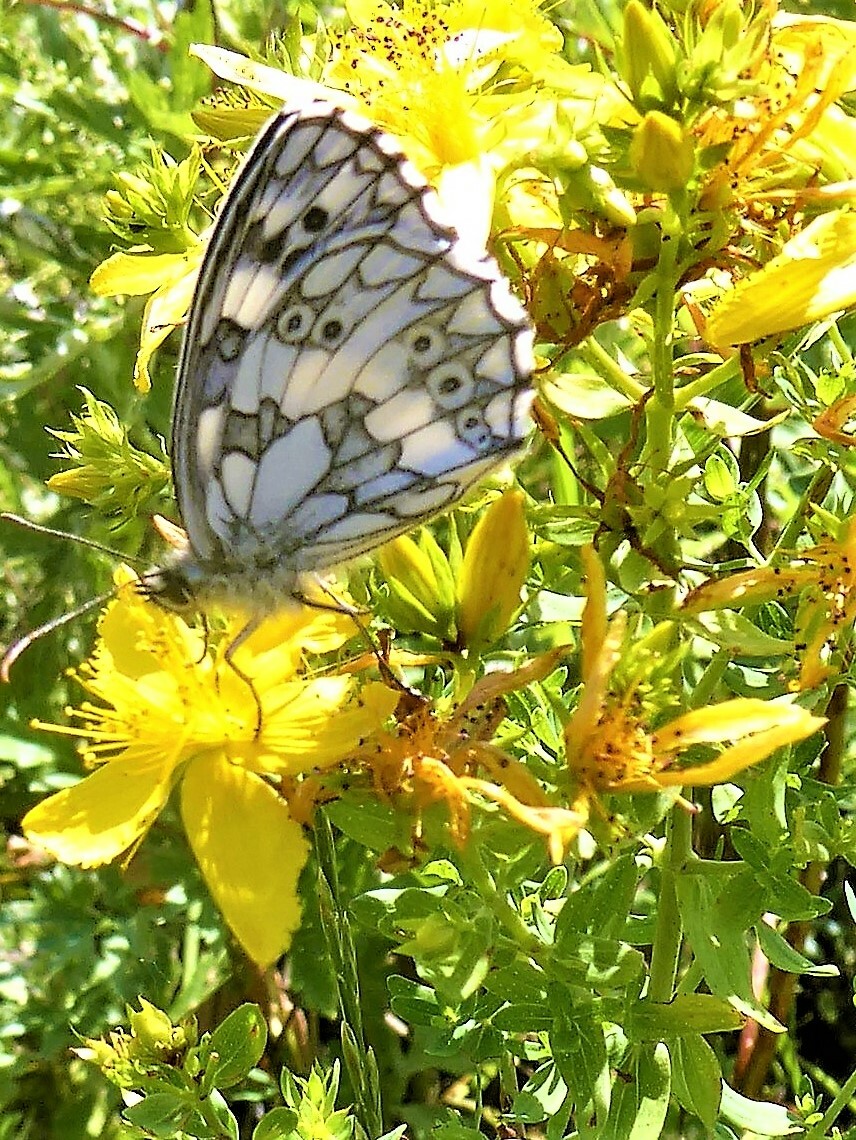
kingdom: Animalia
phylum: Arthropoda
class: Insecta
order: Lepidoptera
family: Nymphalidae
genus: Melanargia
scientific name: Melanargia galathea
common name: Marbled white
